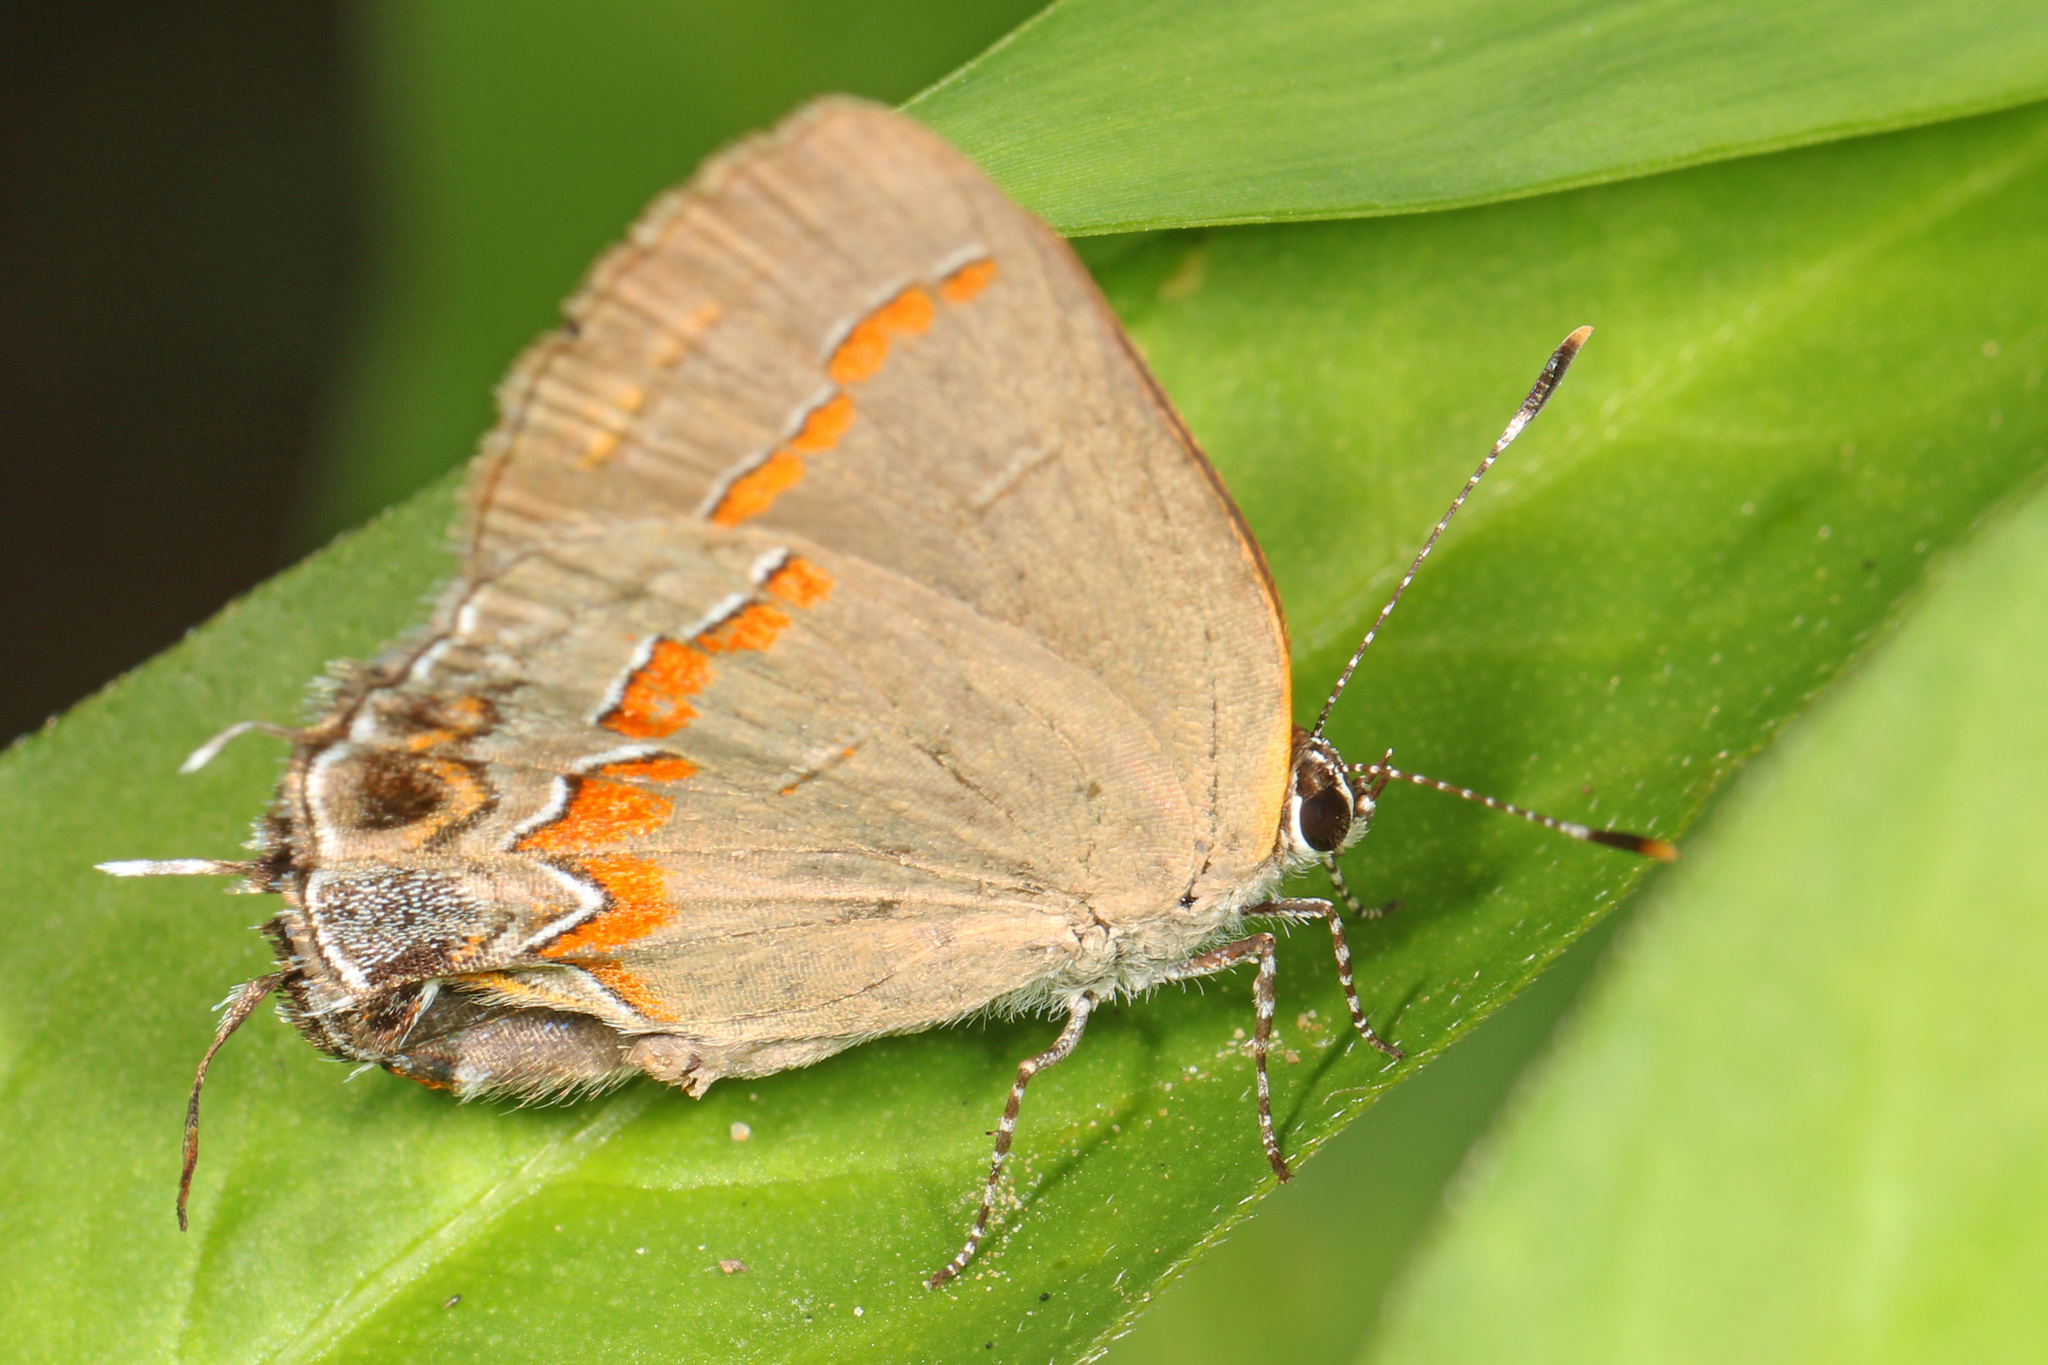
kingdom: Animalia
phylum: Arthropoda
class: Insecta
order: Lepidoptera
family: Lycaenidae
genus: Calycopis
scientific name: Calycopis cecrops
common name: Red-banded hairstreak
